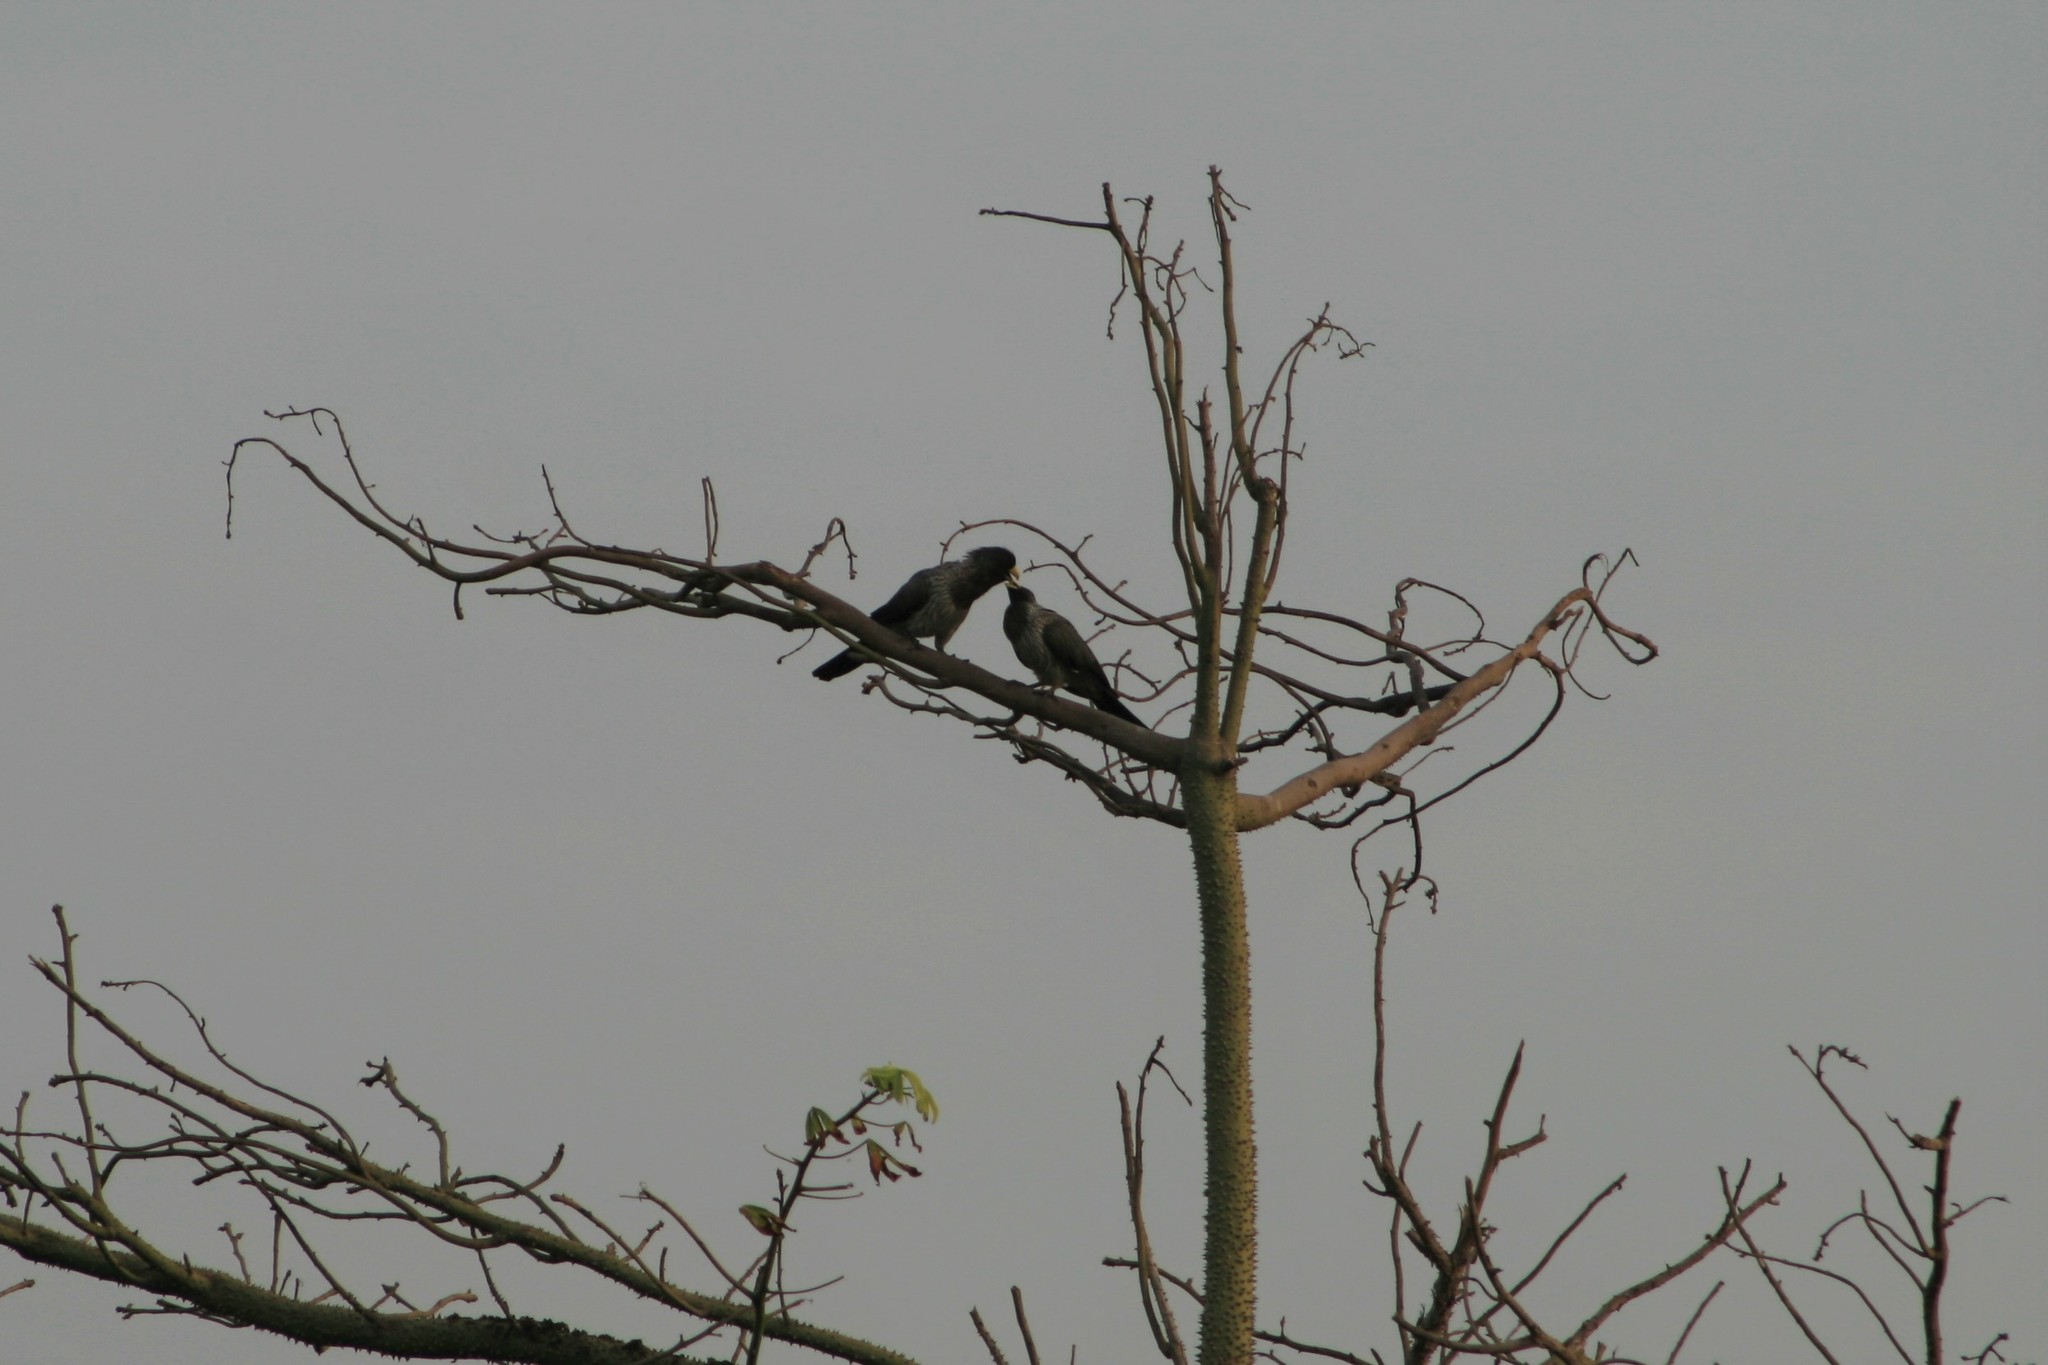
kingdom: Animalia
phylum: Chordata
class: Aves
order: Musophagiformes
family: Musophagidae
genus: Crinifer
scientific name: Crinifer piscator
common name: Western plantain-eater
